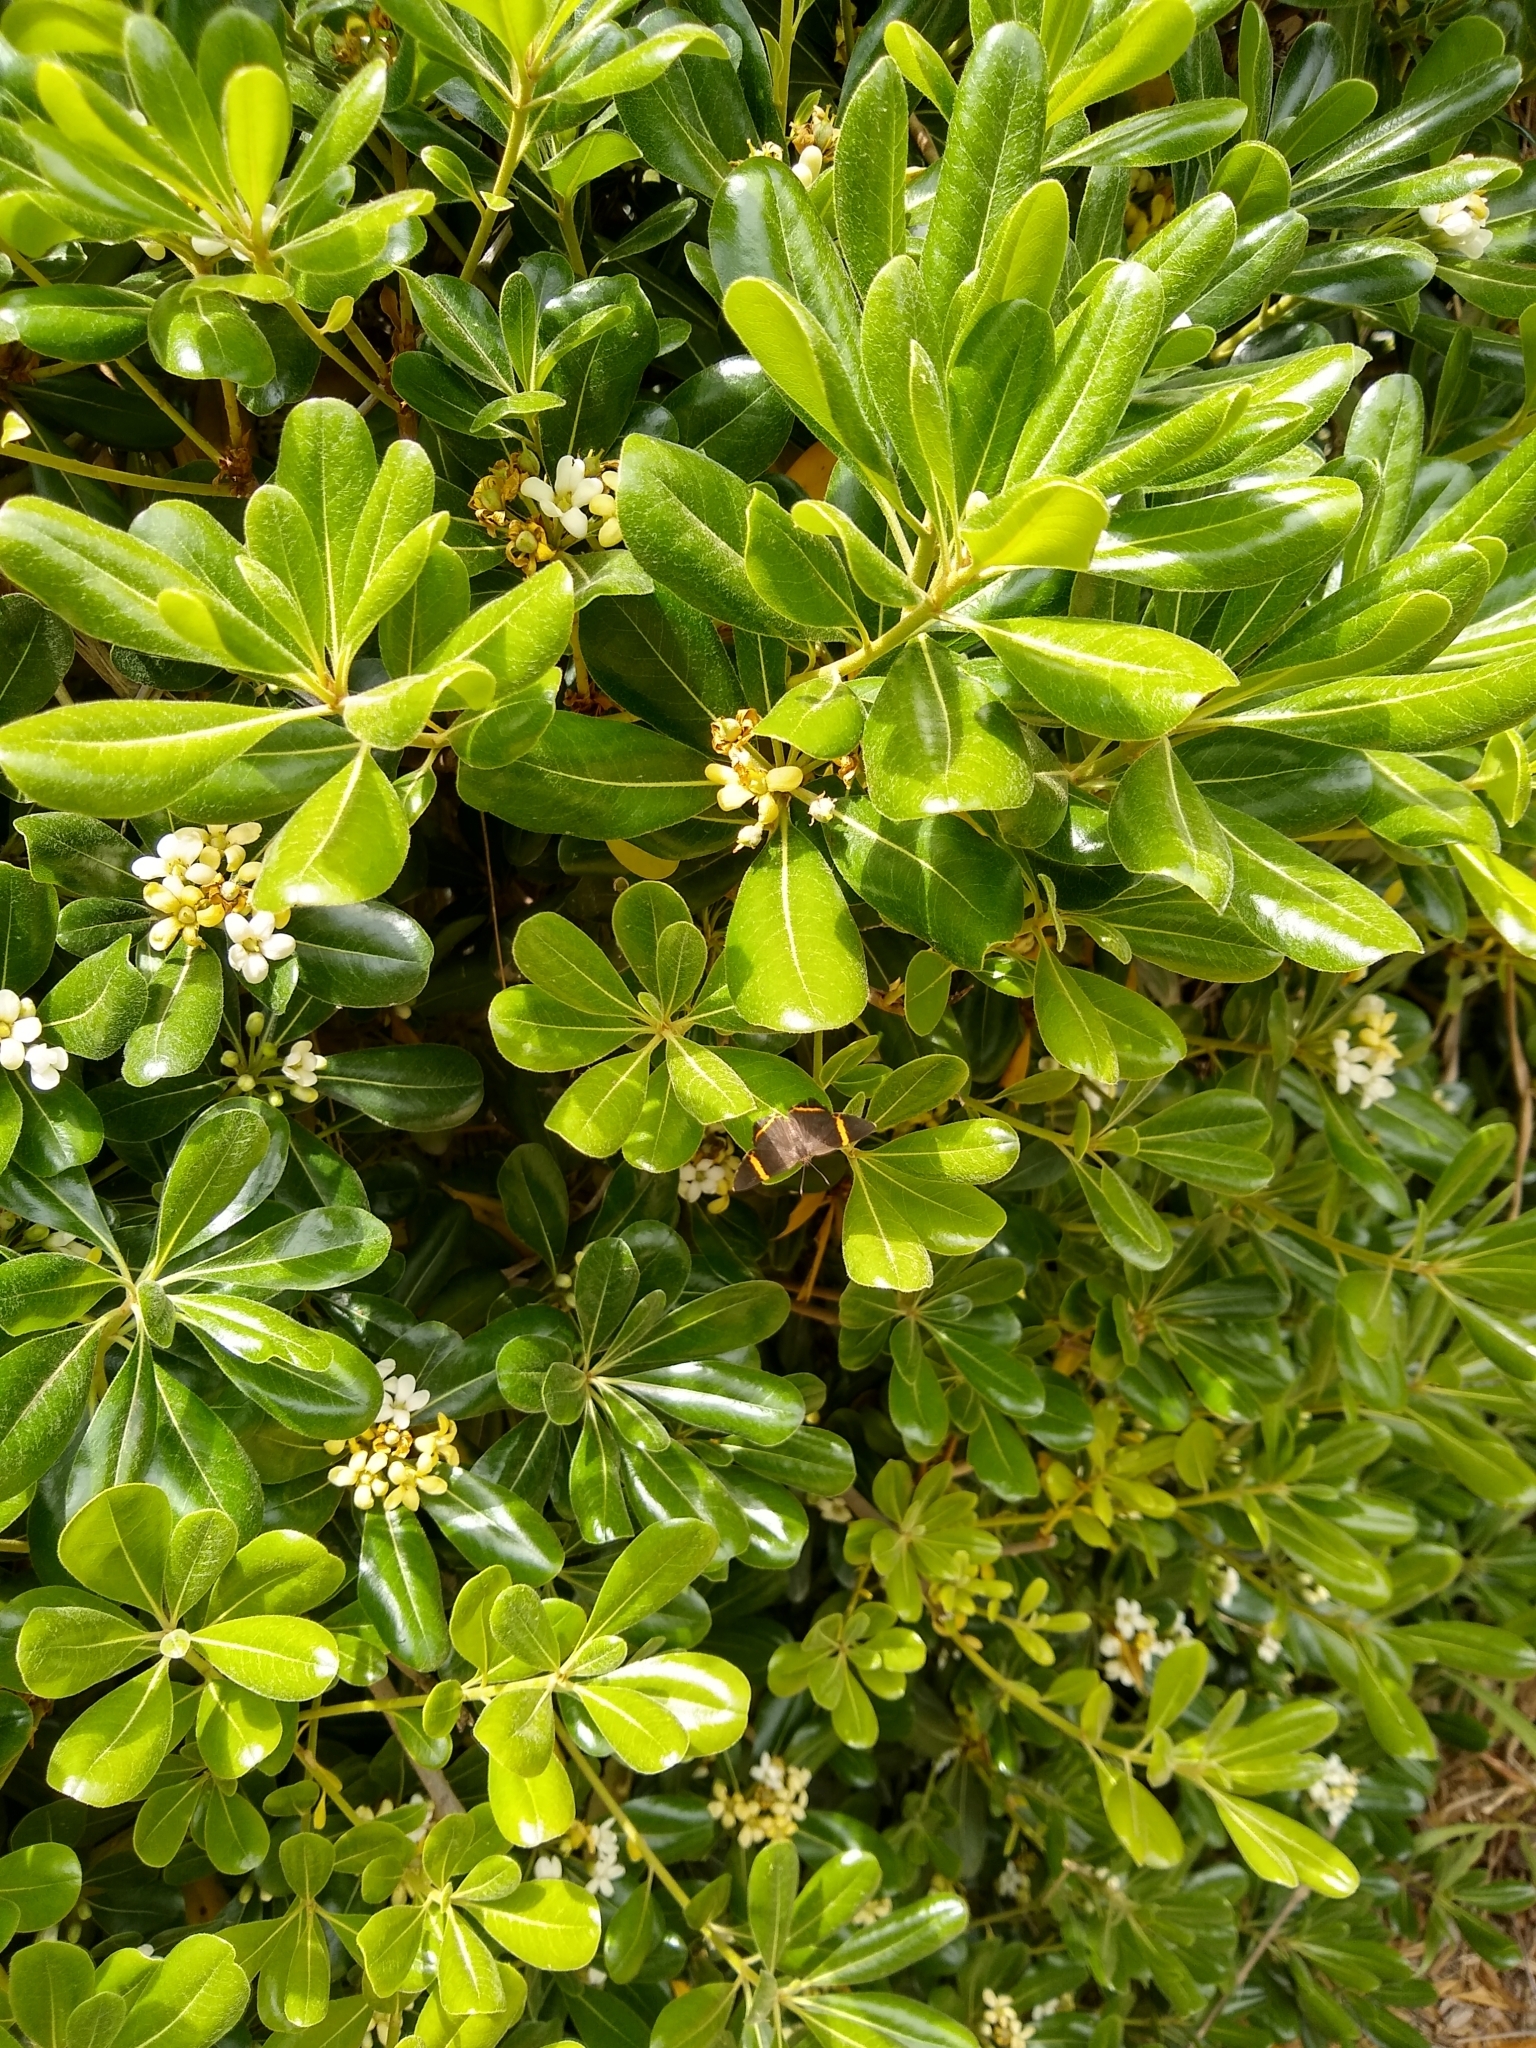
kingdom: Plantae
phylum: Tracheophyta
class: Magnoliopsida
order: Apiales
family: Pittosporaceae
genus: Pittosporum
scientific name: Pittosporum tobira
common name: Japanese cheesewood
